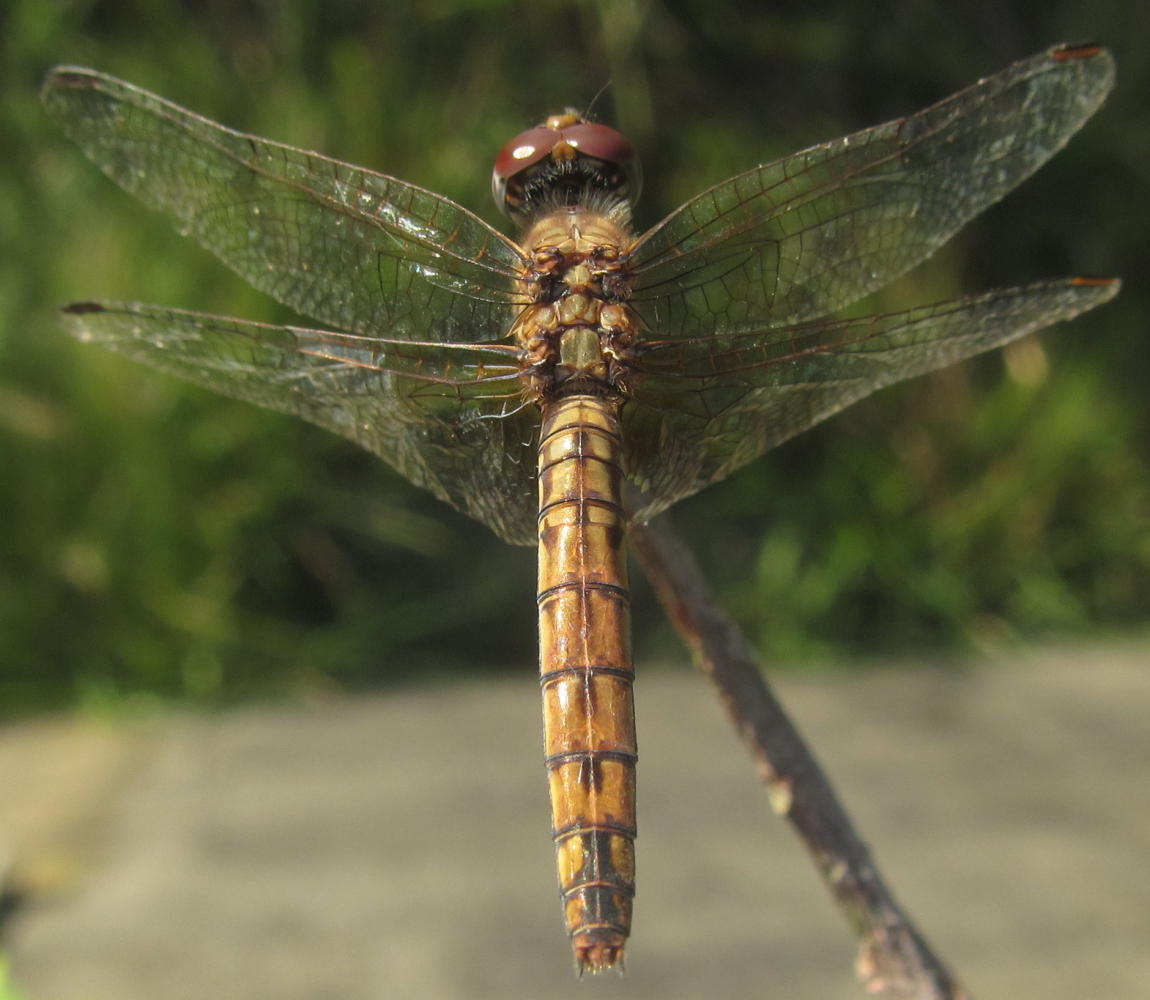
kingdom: Animalia
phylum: Arthropoda
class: Insecta
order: Odonata
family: Libellulidae
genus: Trithemis
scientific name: Trithemis annulata
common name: Violet dropwing
